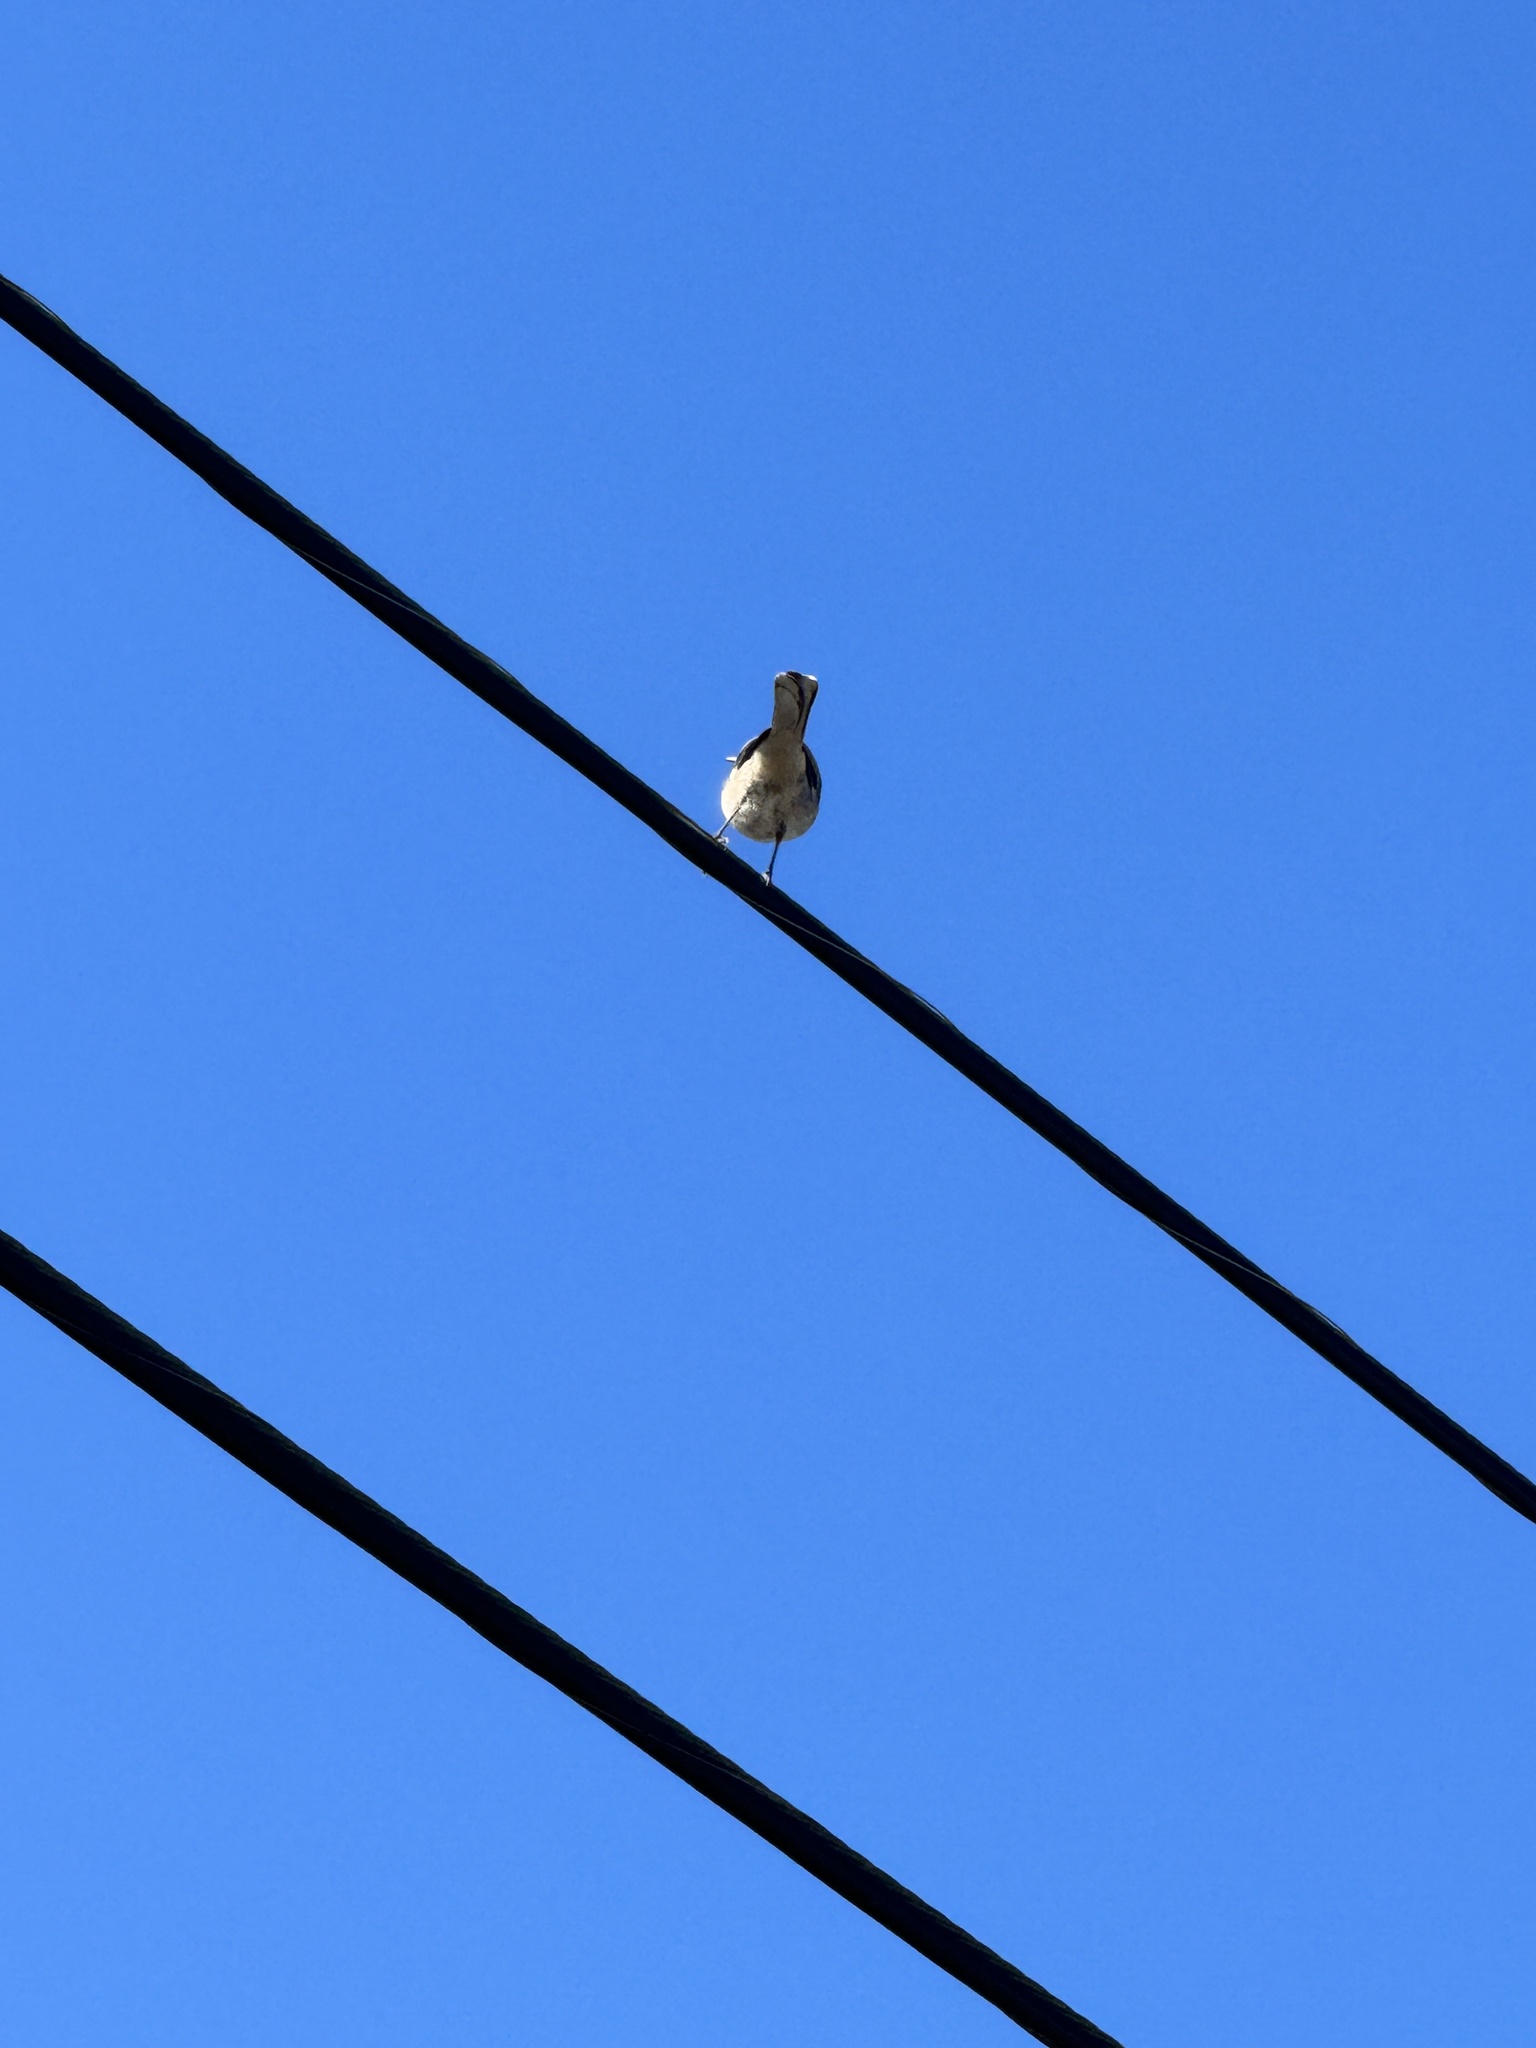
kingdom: Animalia
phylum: Chordata
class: Aves
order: Passeriformes
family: Mimidae
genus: Mimus
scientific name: Mimus polyglottos
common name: Northern mockingbird
